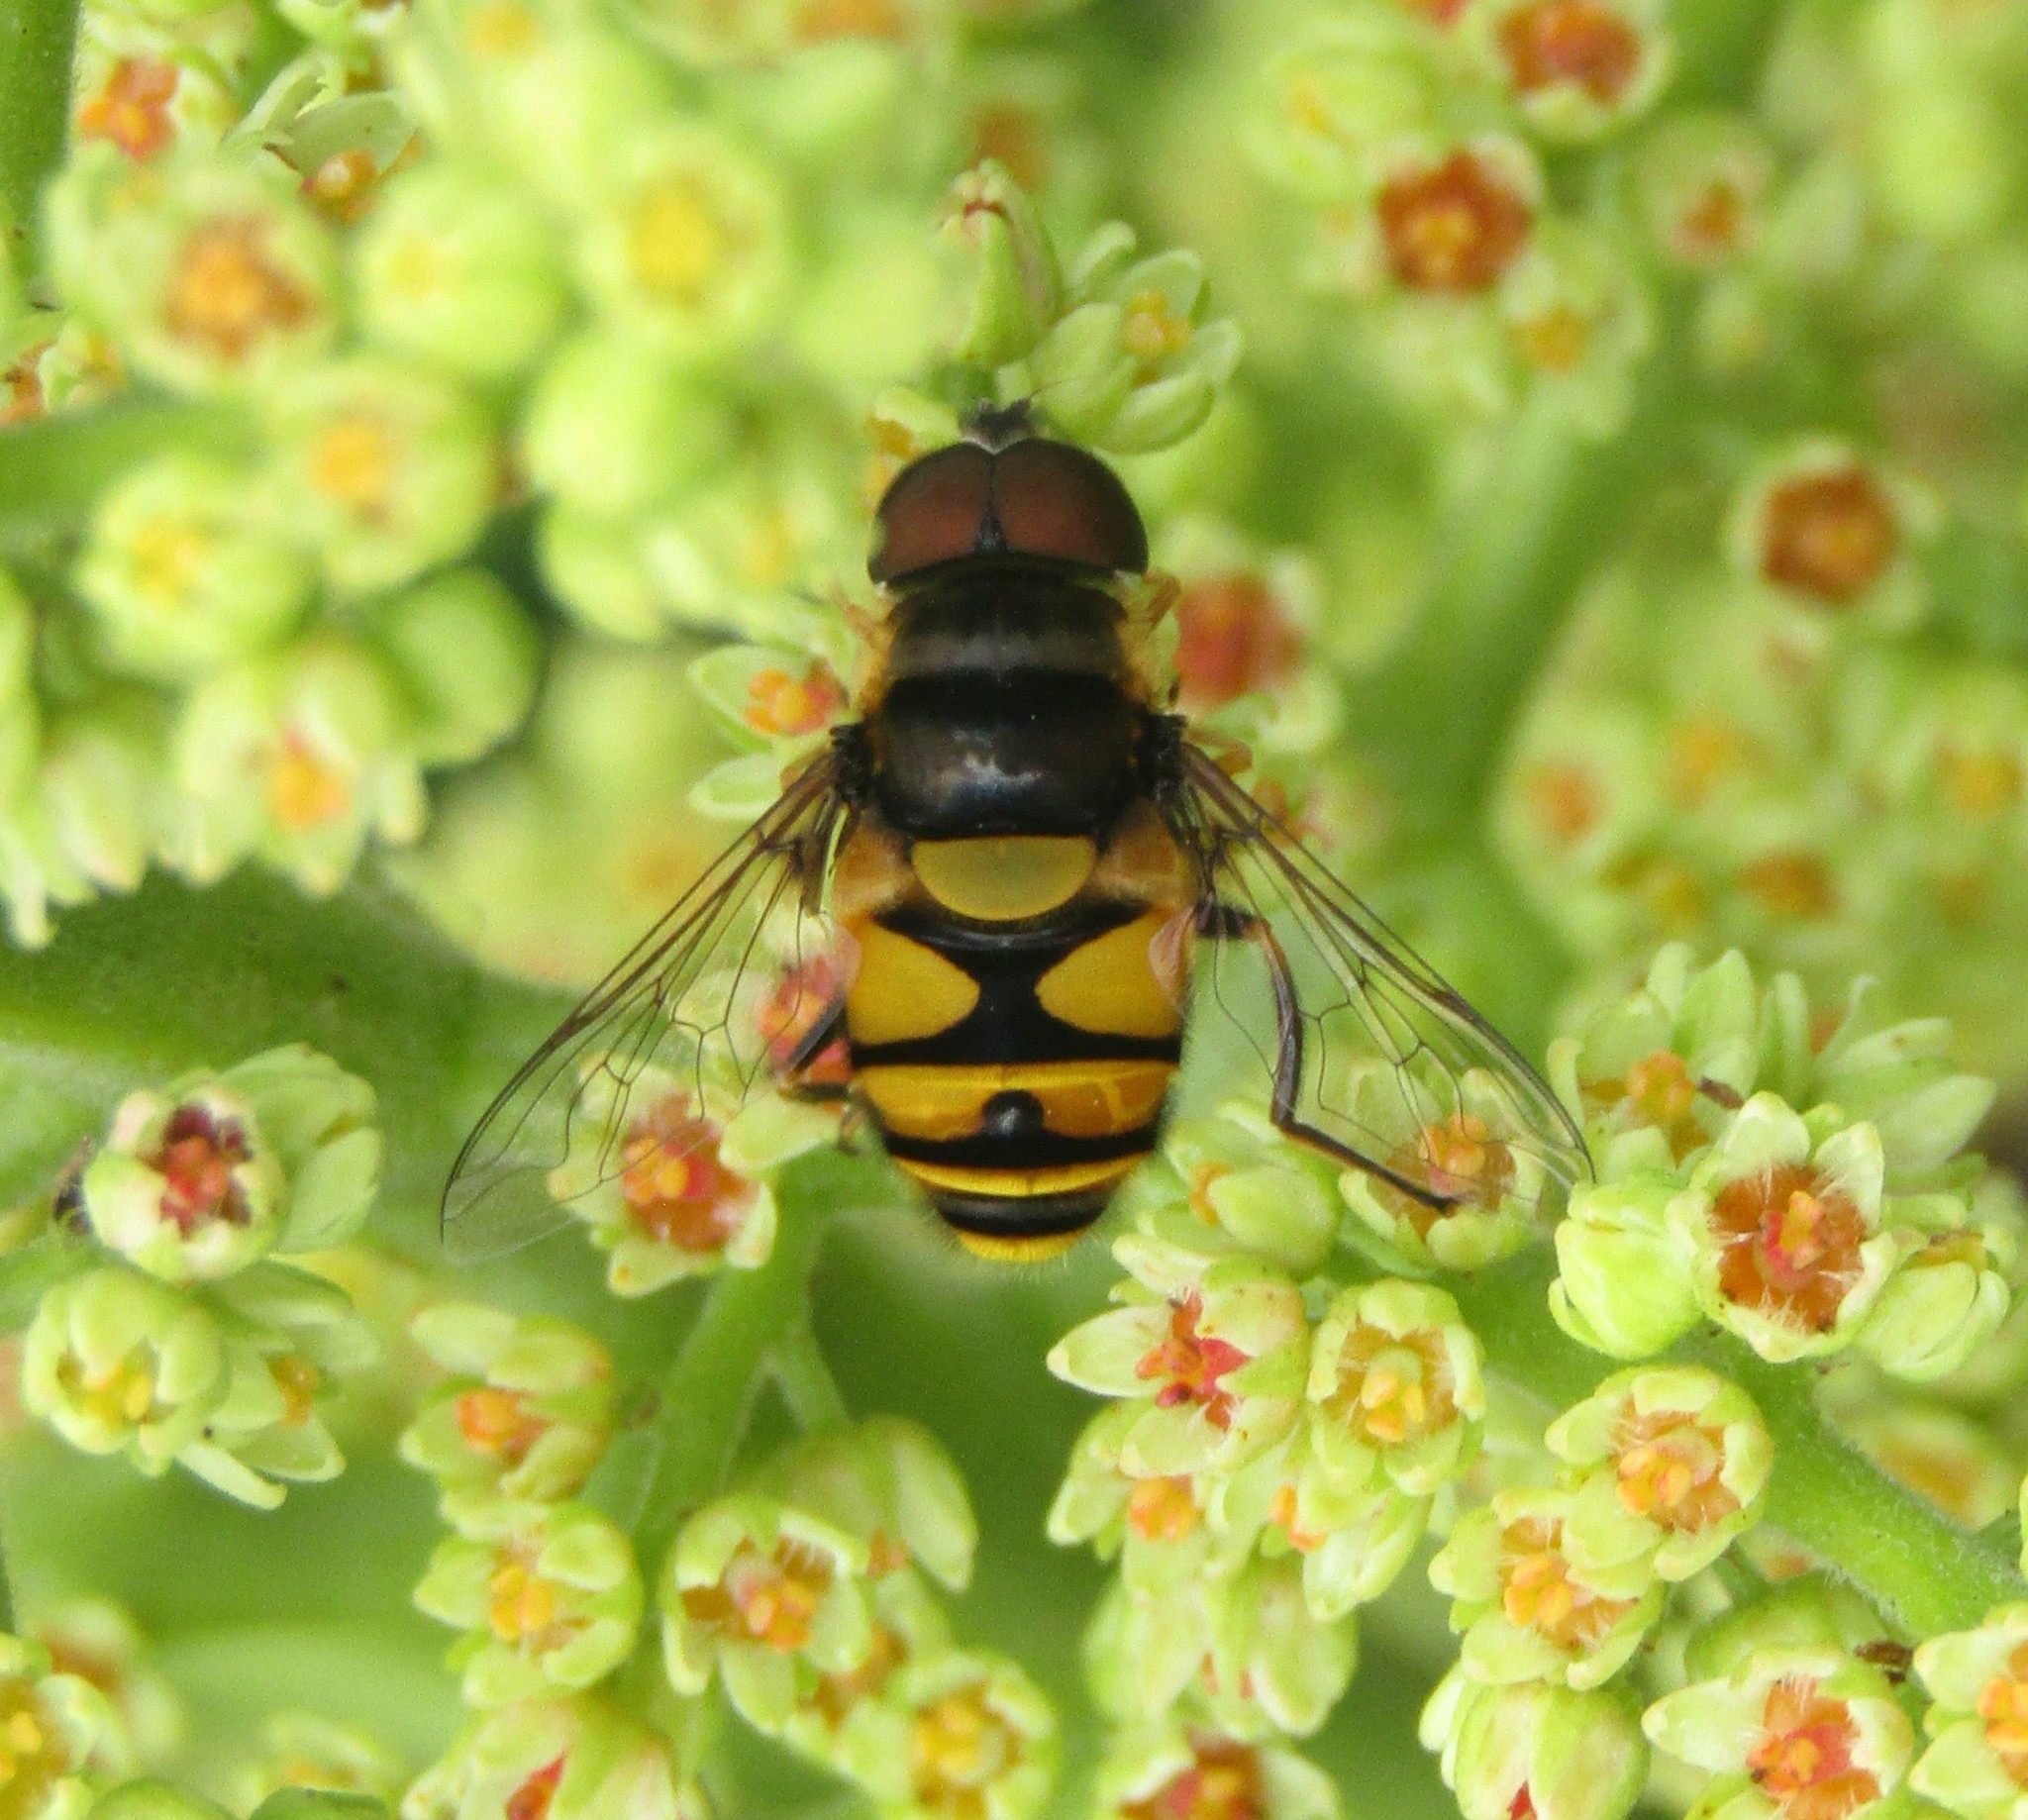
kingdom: Animalia
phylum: Arthropoda
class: Insecta
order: Diptera
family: Syrphidae
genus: Eristalis
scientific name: Eristalis transversa
